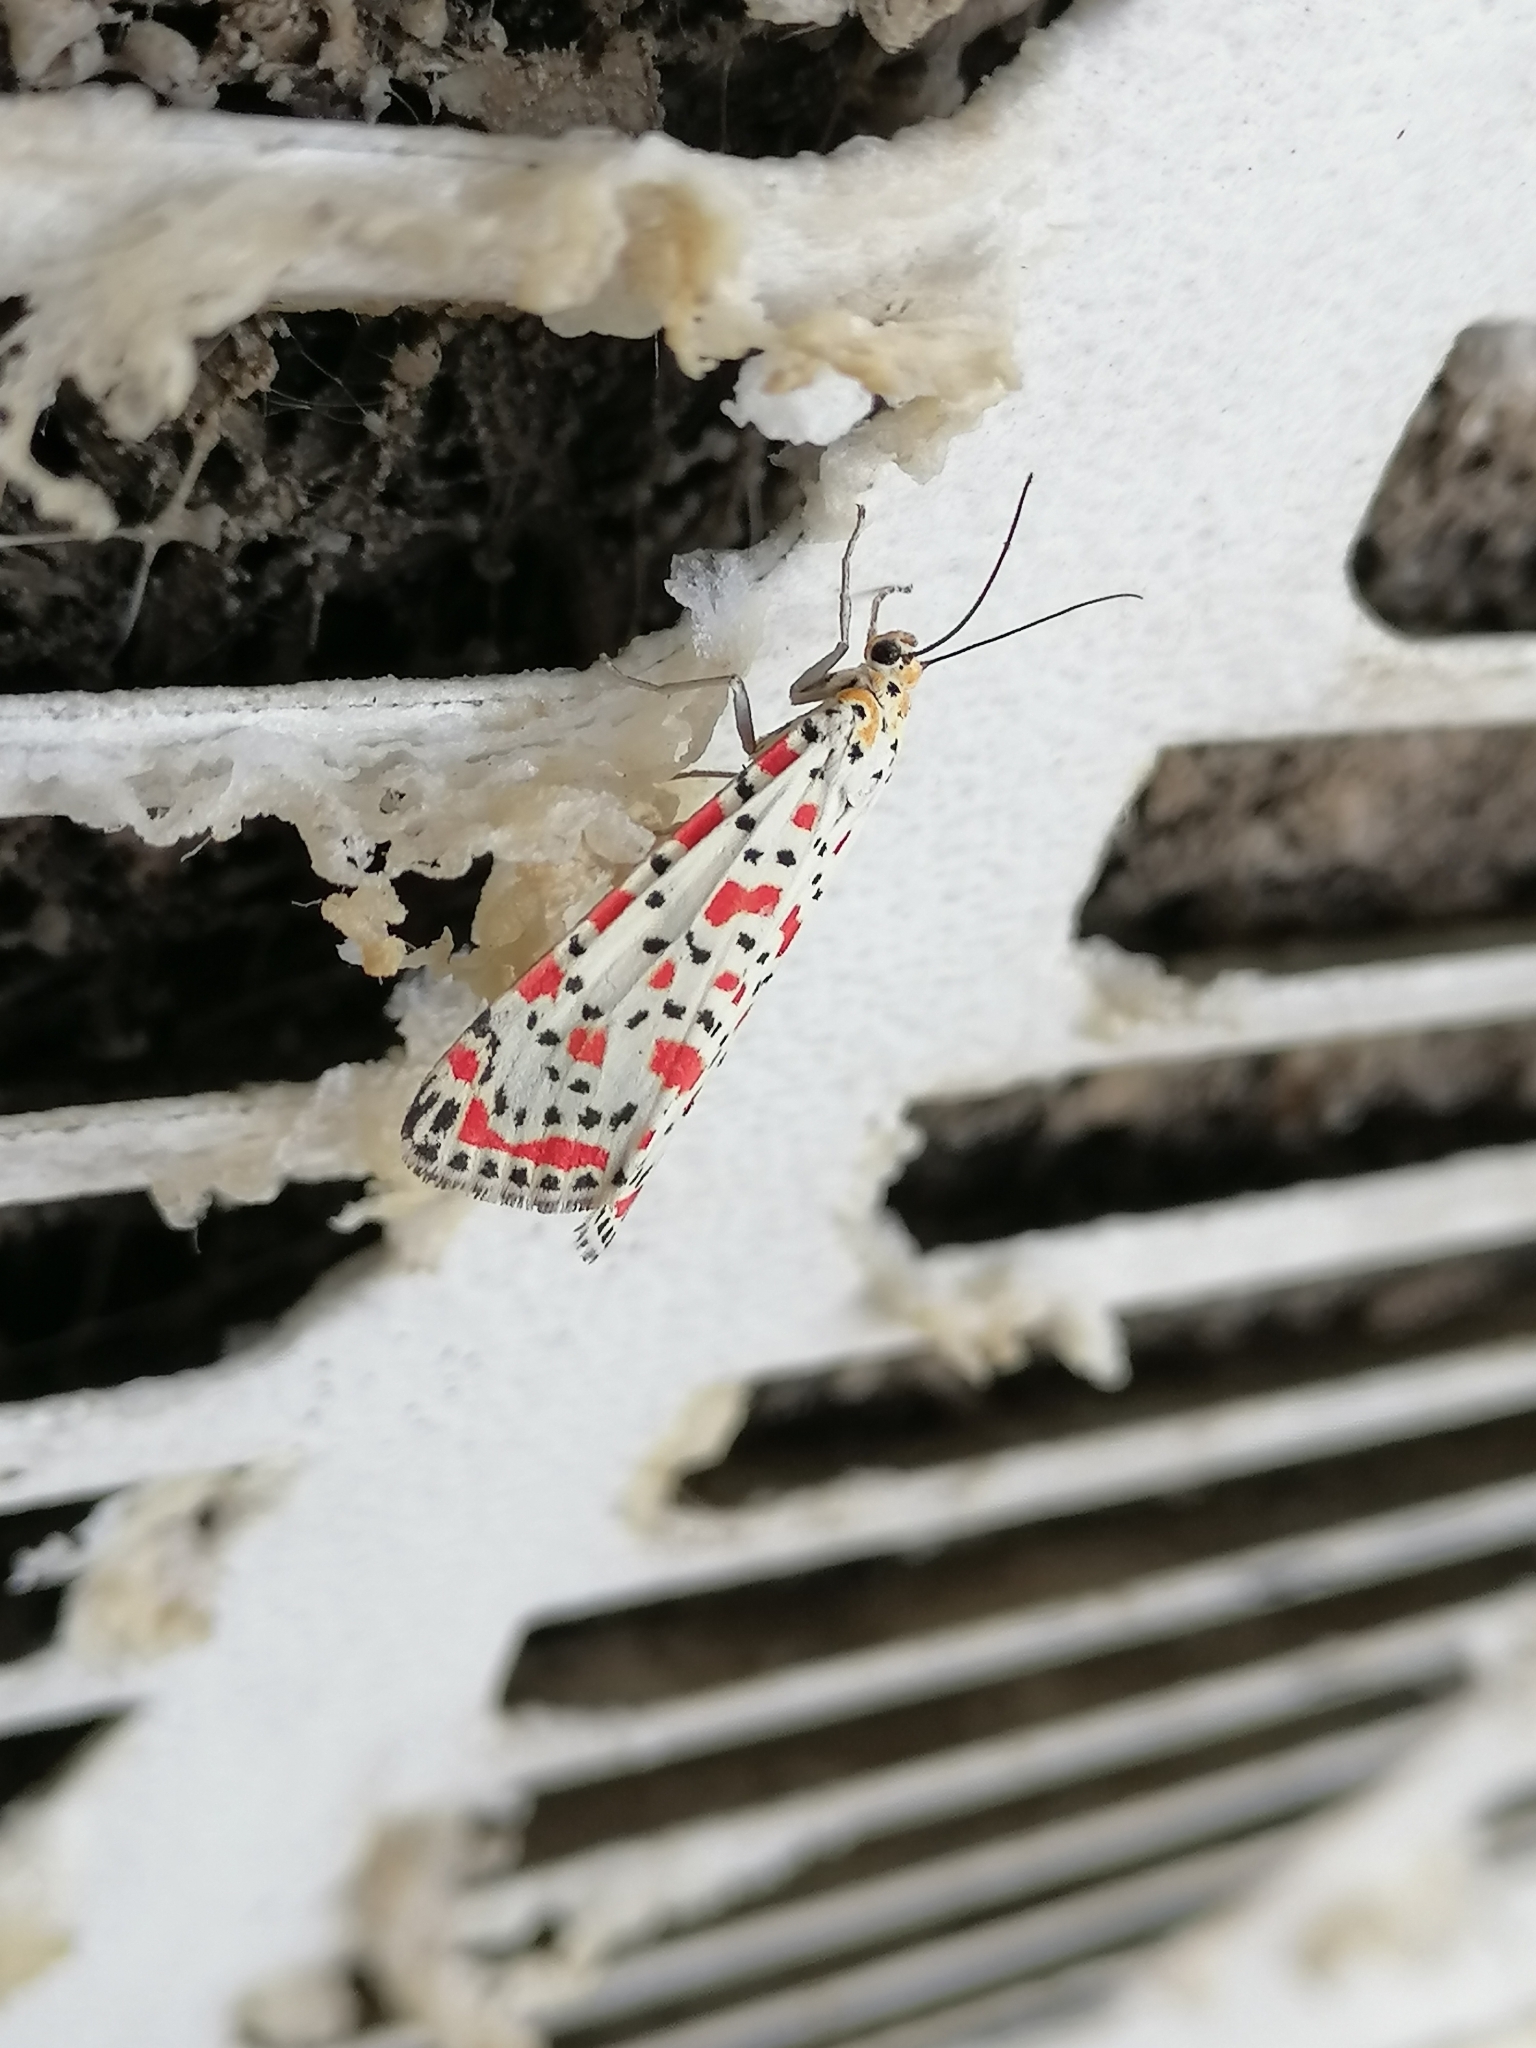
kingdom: Animalia
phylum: Arthropoda
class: Insecta
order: Lepidoptera
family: Erebidae
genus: Utetheisa
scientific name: Utetheisa pulchella
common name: Crimson speckled
